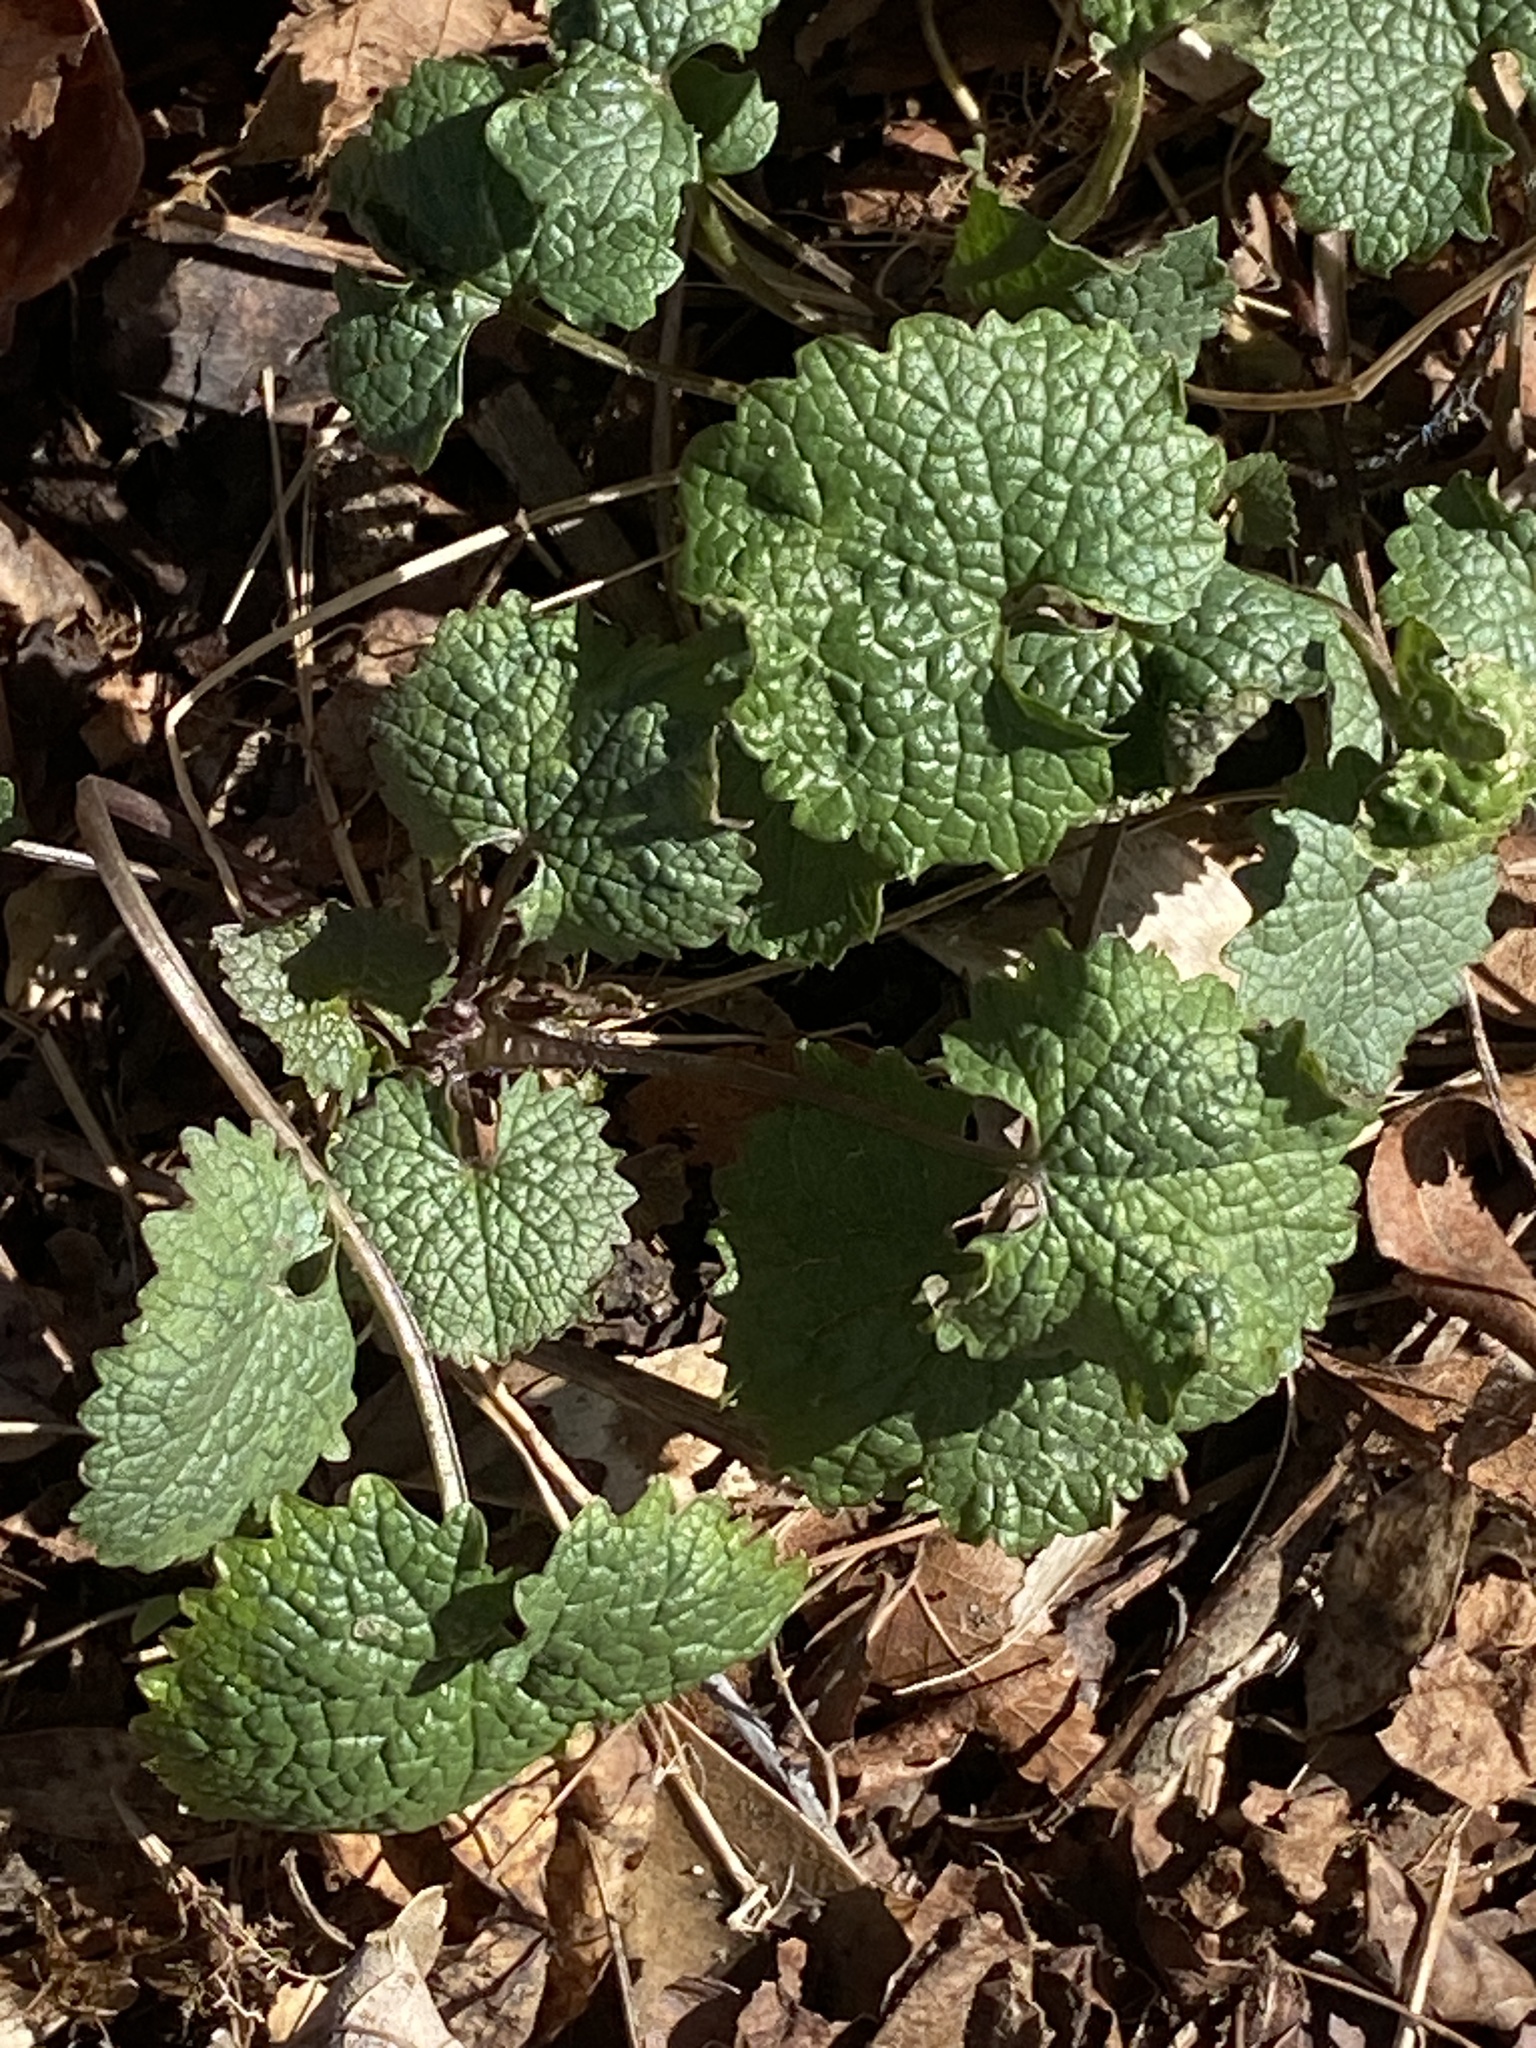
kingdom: Plantae
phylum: Tracheophyta
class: Magnoliopsida
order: Brassicales
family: Brassicaceae
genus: Alliaria
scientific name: Alliaria petiolata
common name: Garlic mustard
